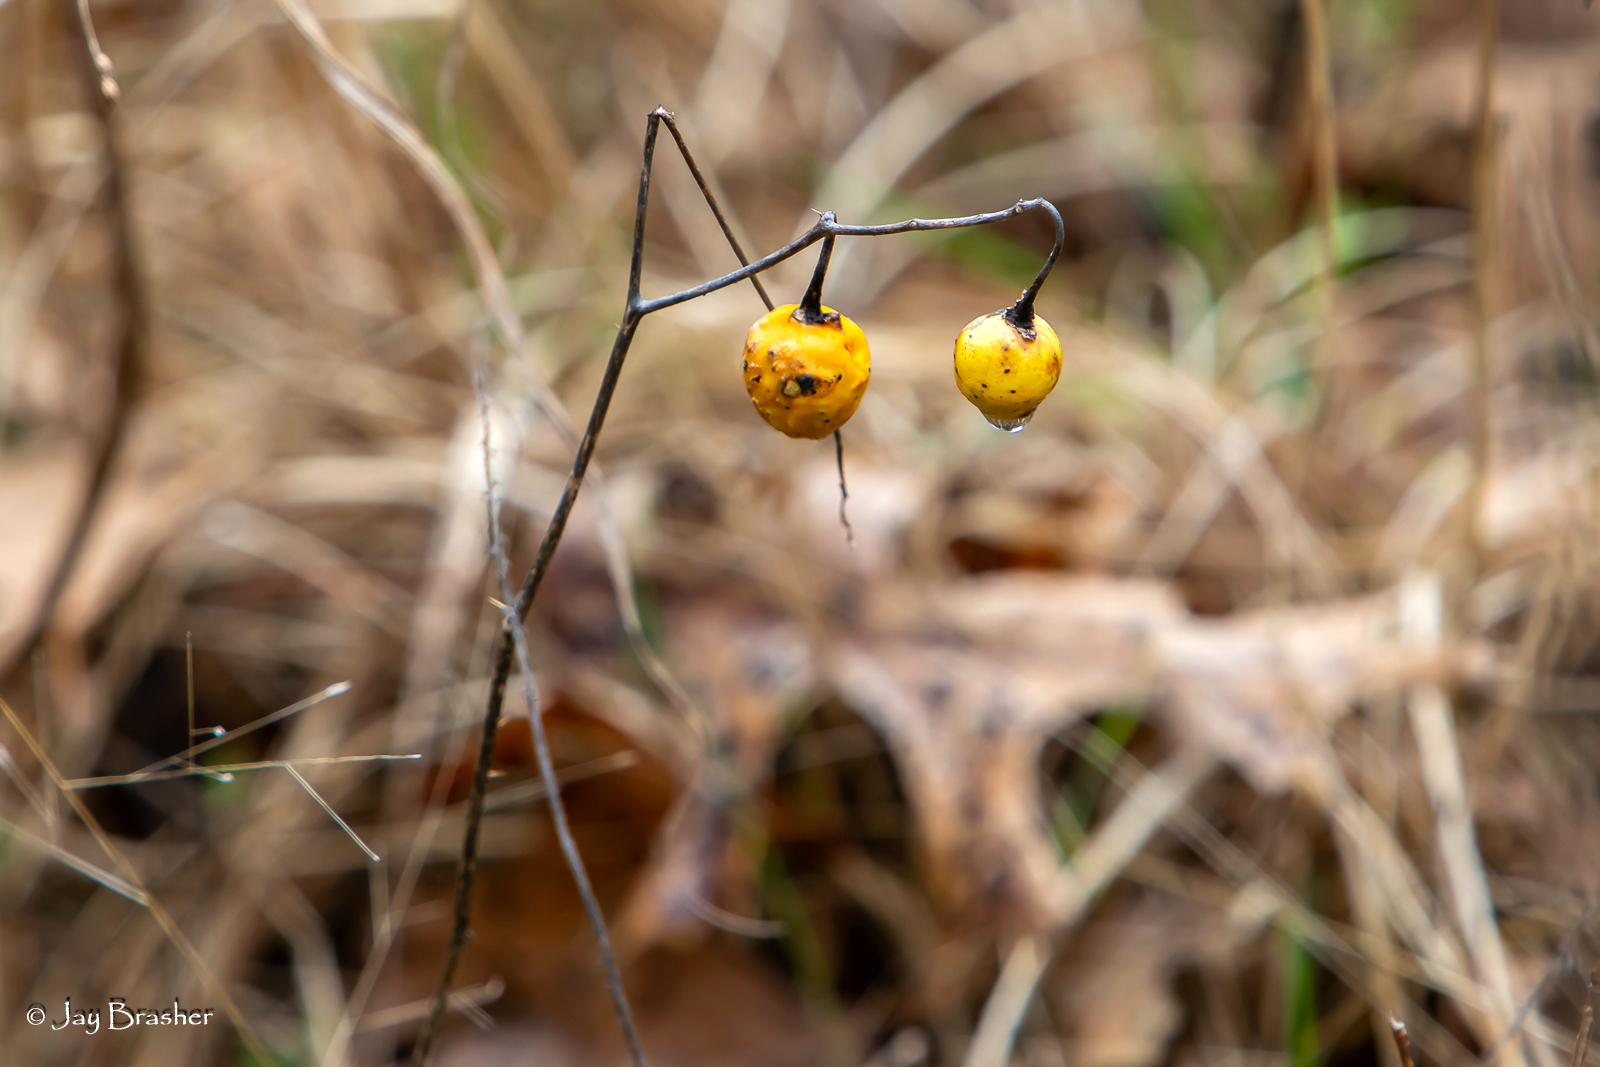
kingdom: Plantae
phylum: Tracheophyta
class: Magnoliopsida
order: Solanales
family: Solanaceae
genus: Solanum
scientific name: Solanum carolinense
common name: Horse-nettle
